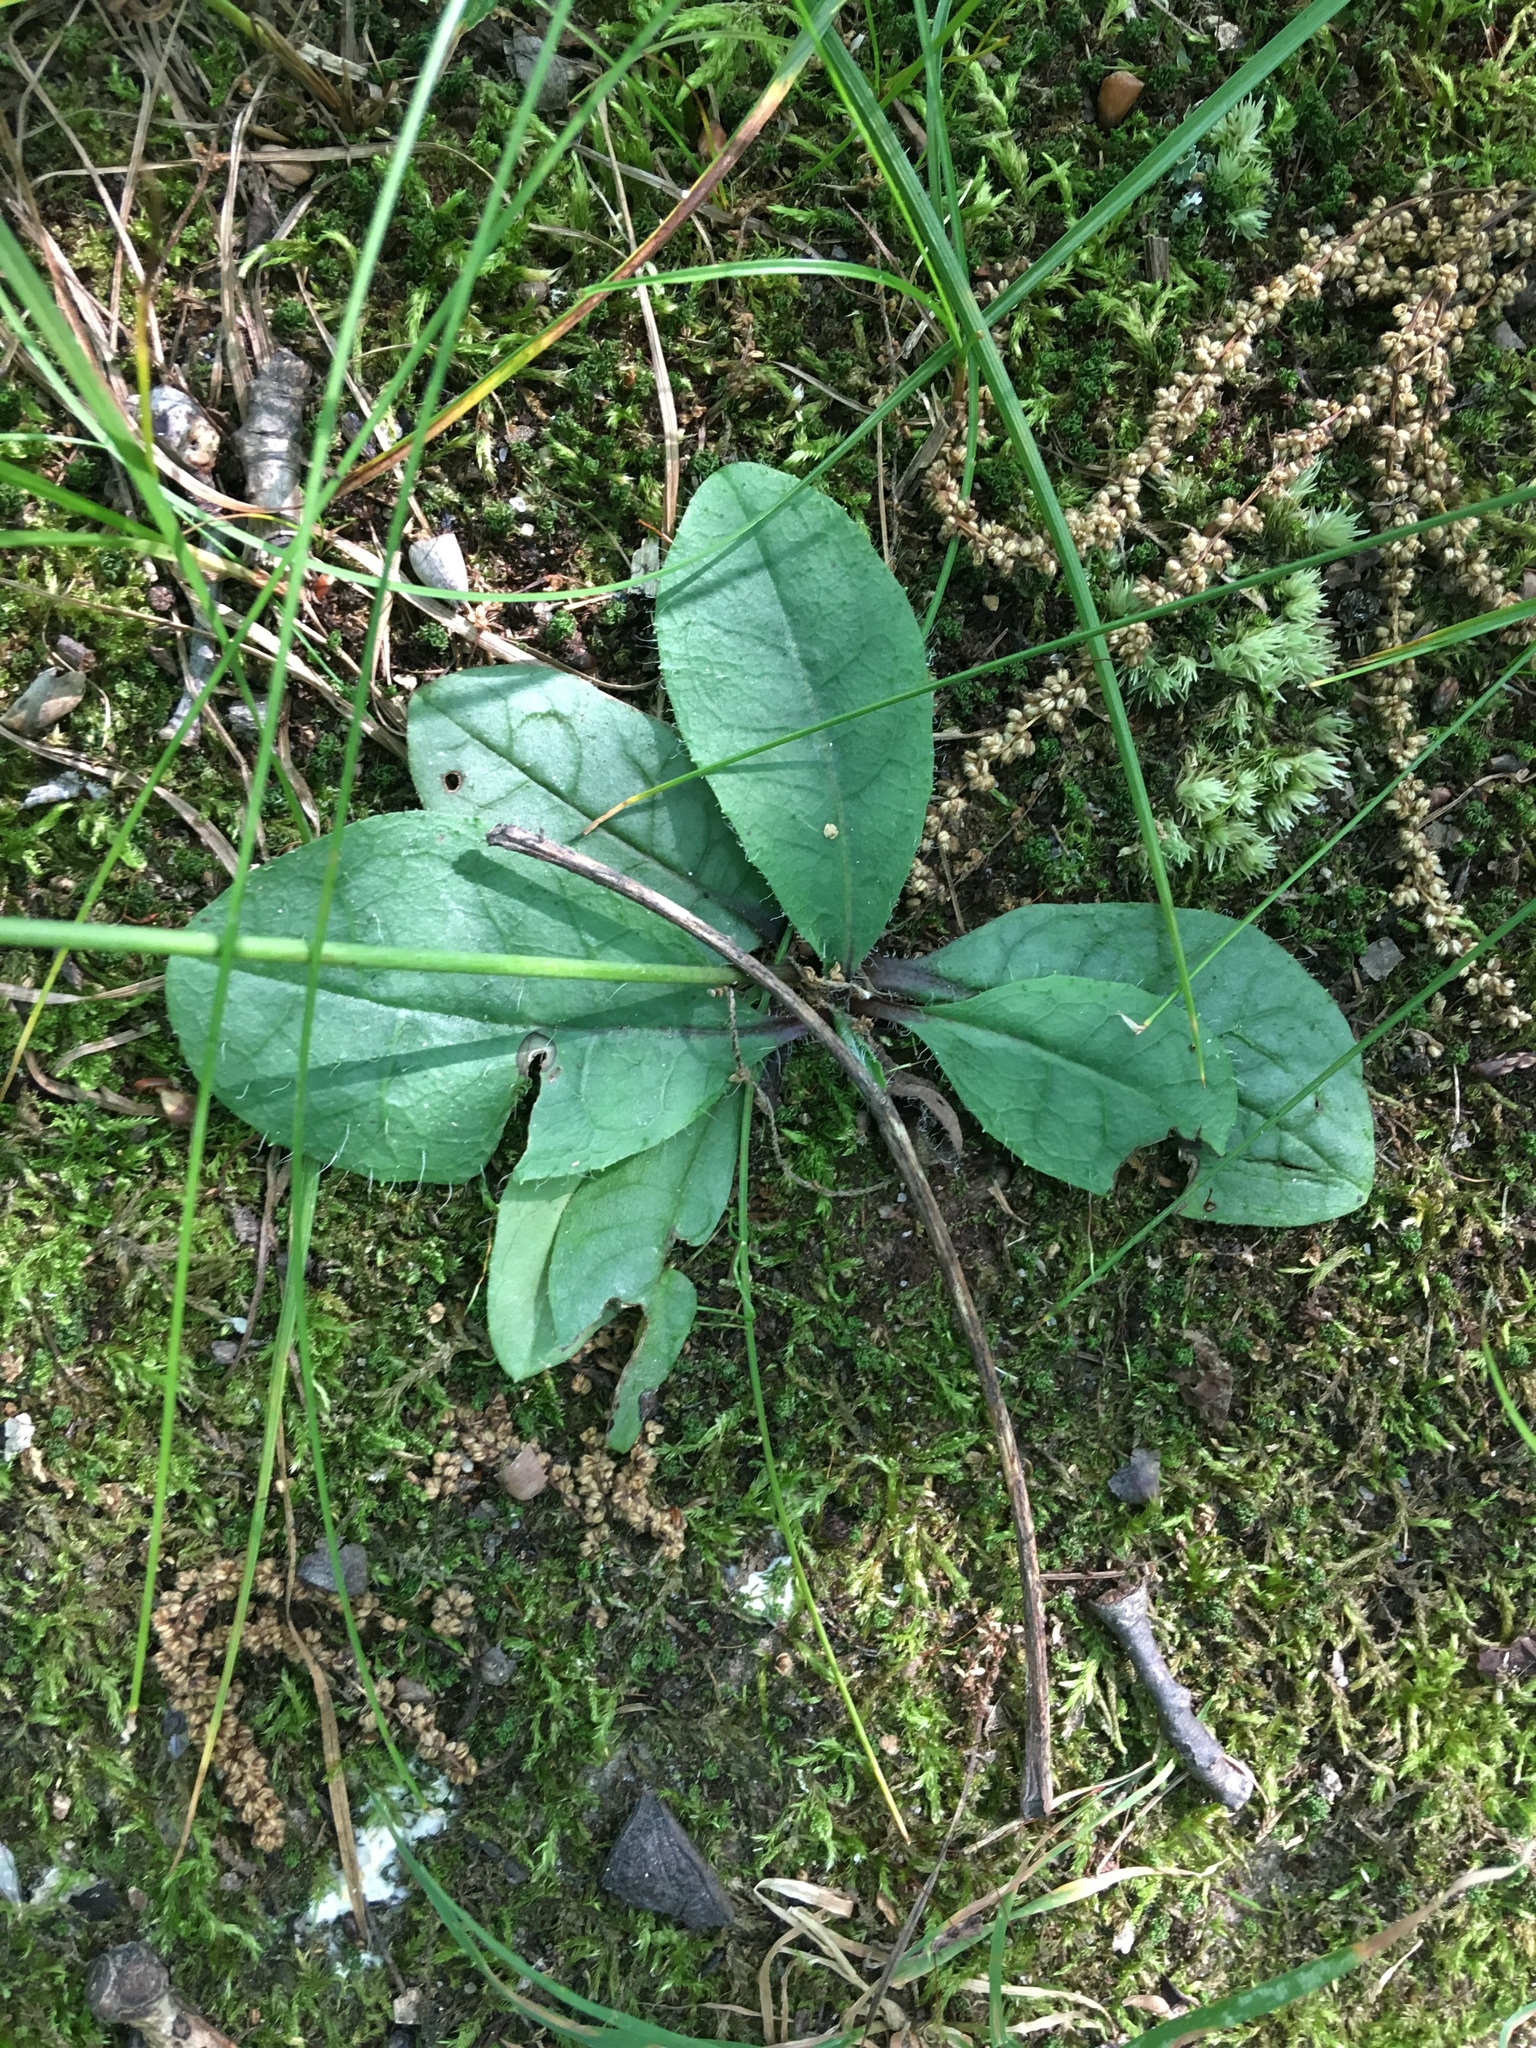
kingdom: Plantae
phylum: Tracheophyta
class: Magnoliopsida
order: Asterales
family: Asteraceae
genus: Hieracium
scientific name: Hieracium venosum
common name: Rattlesnake hawkweed
